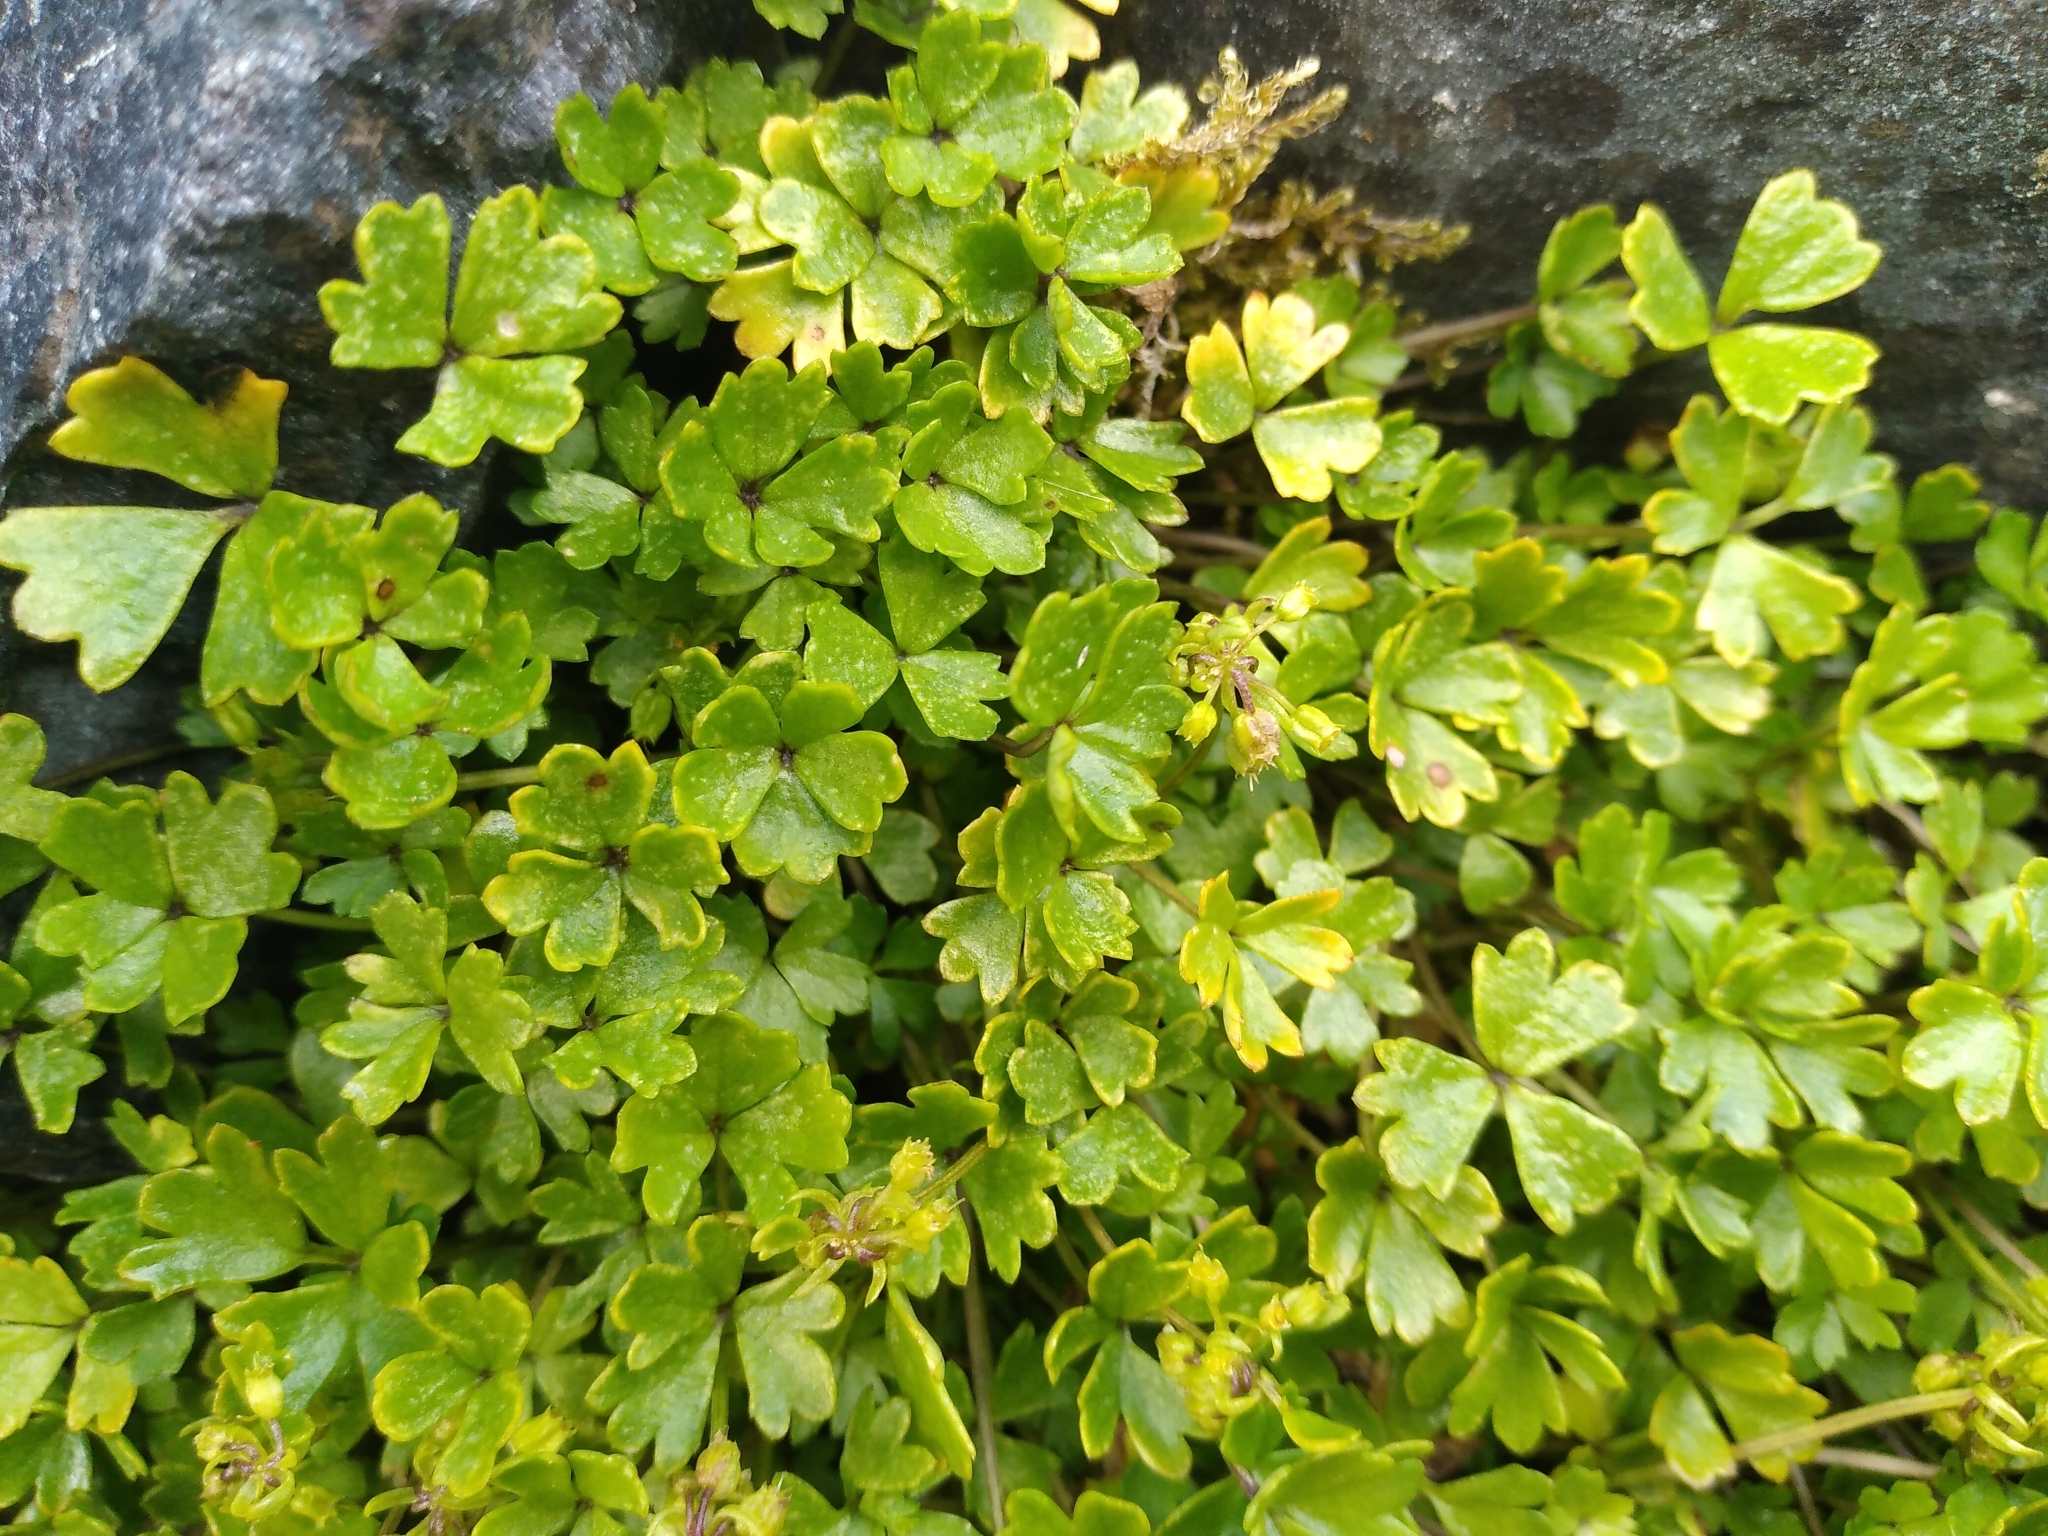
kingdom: Plantae
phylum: Tracheophyta
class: Magnoliopsida
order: Apiales
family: Apiaceae
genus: Azorella
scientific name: Azorella pallida
